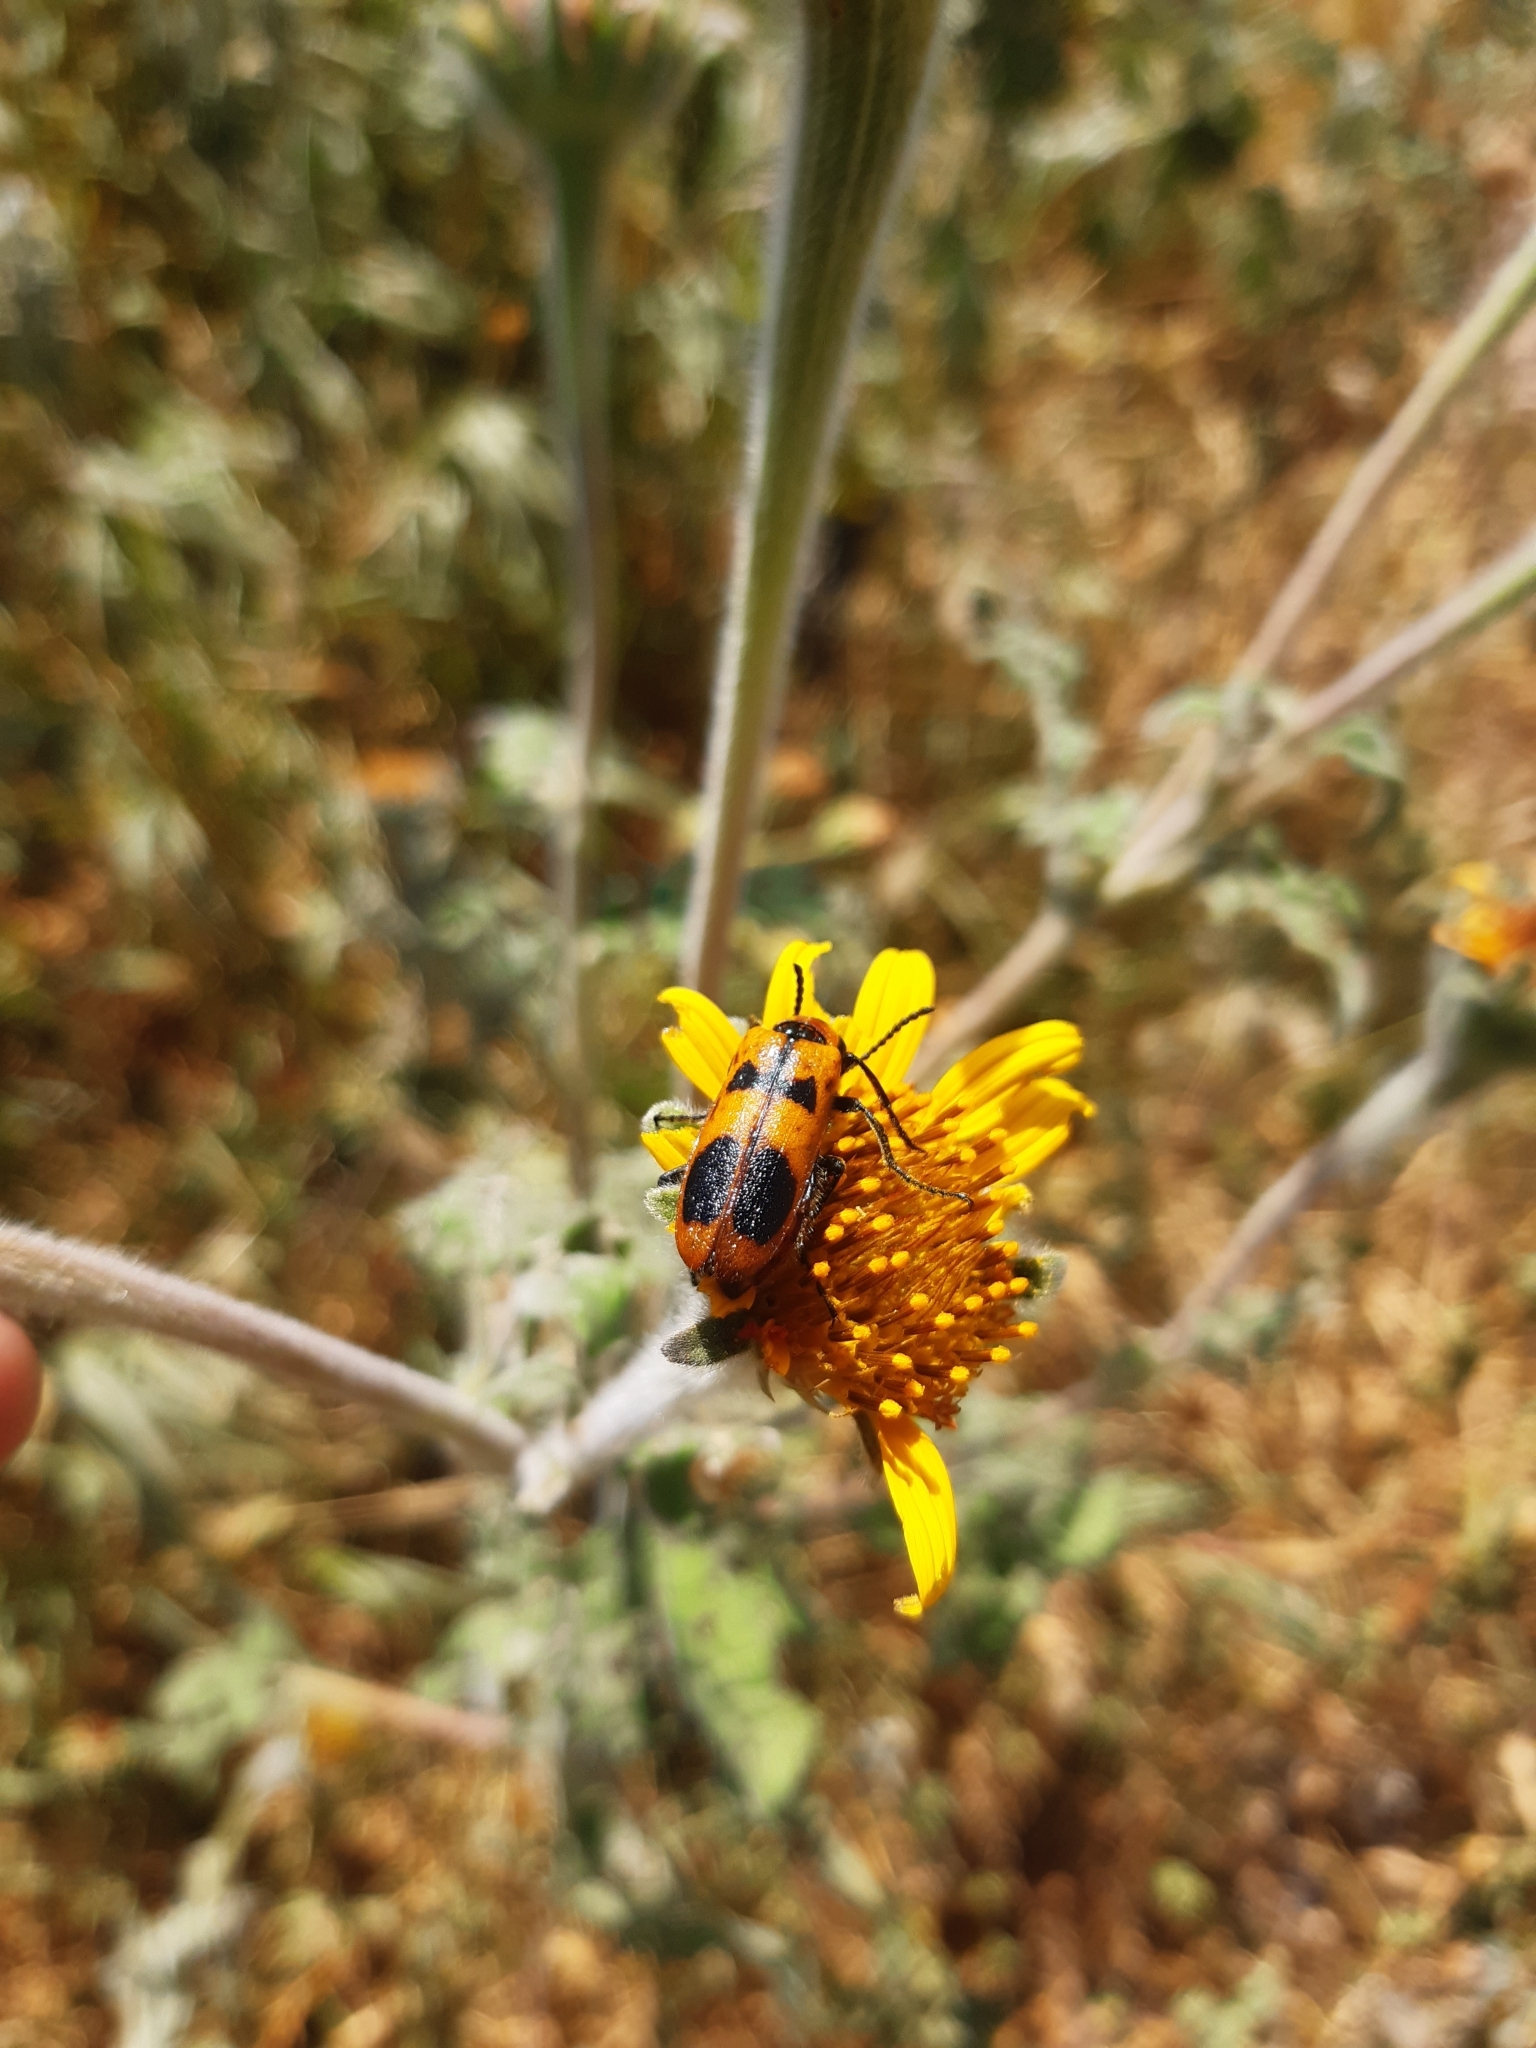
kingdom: Animalia
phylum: Arthropoda
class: Insecta
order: Coleoptera
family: Meloidae
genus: Lytta
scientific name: Lytta quadrimaculata
